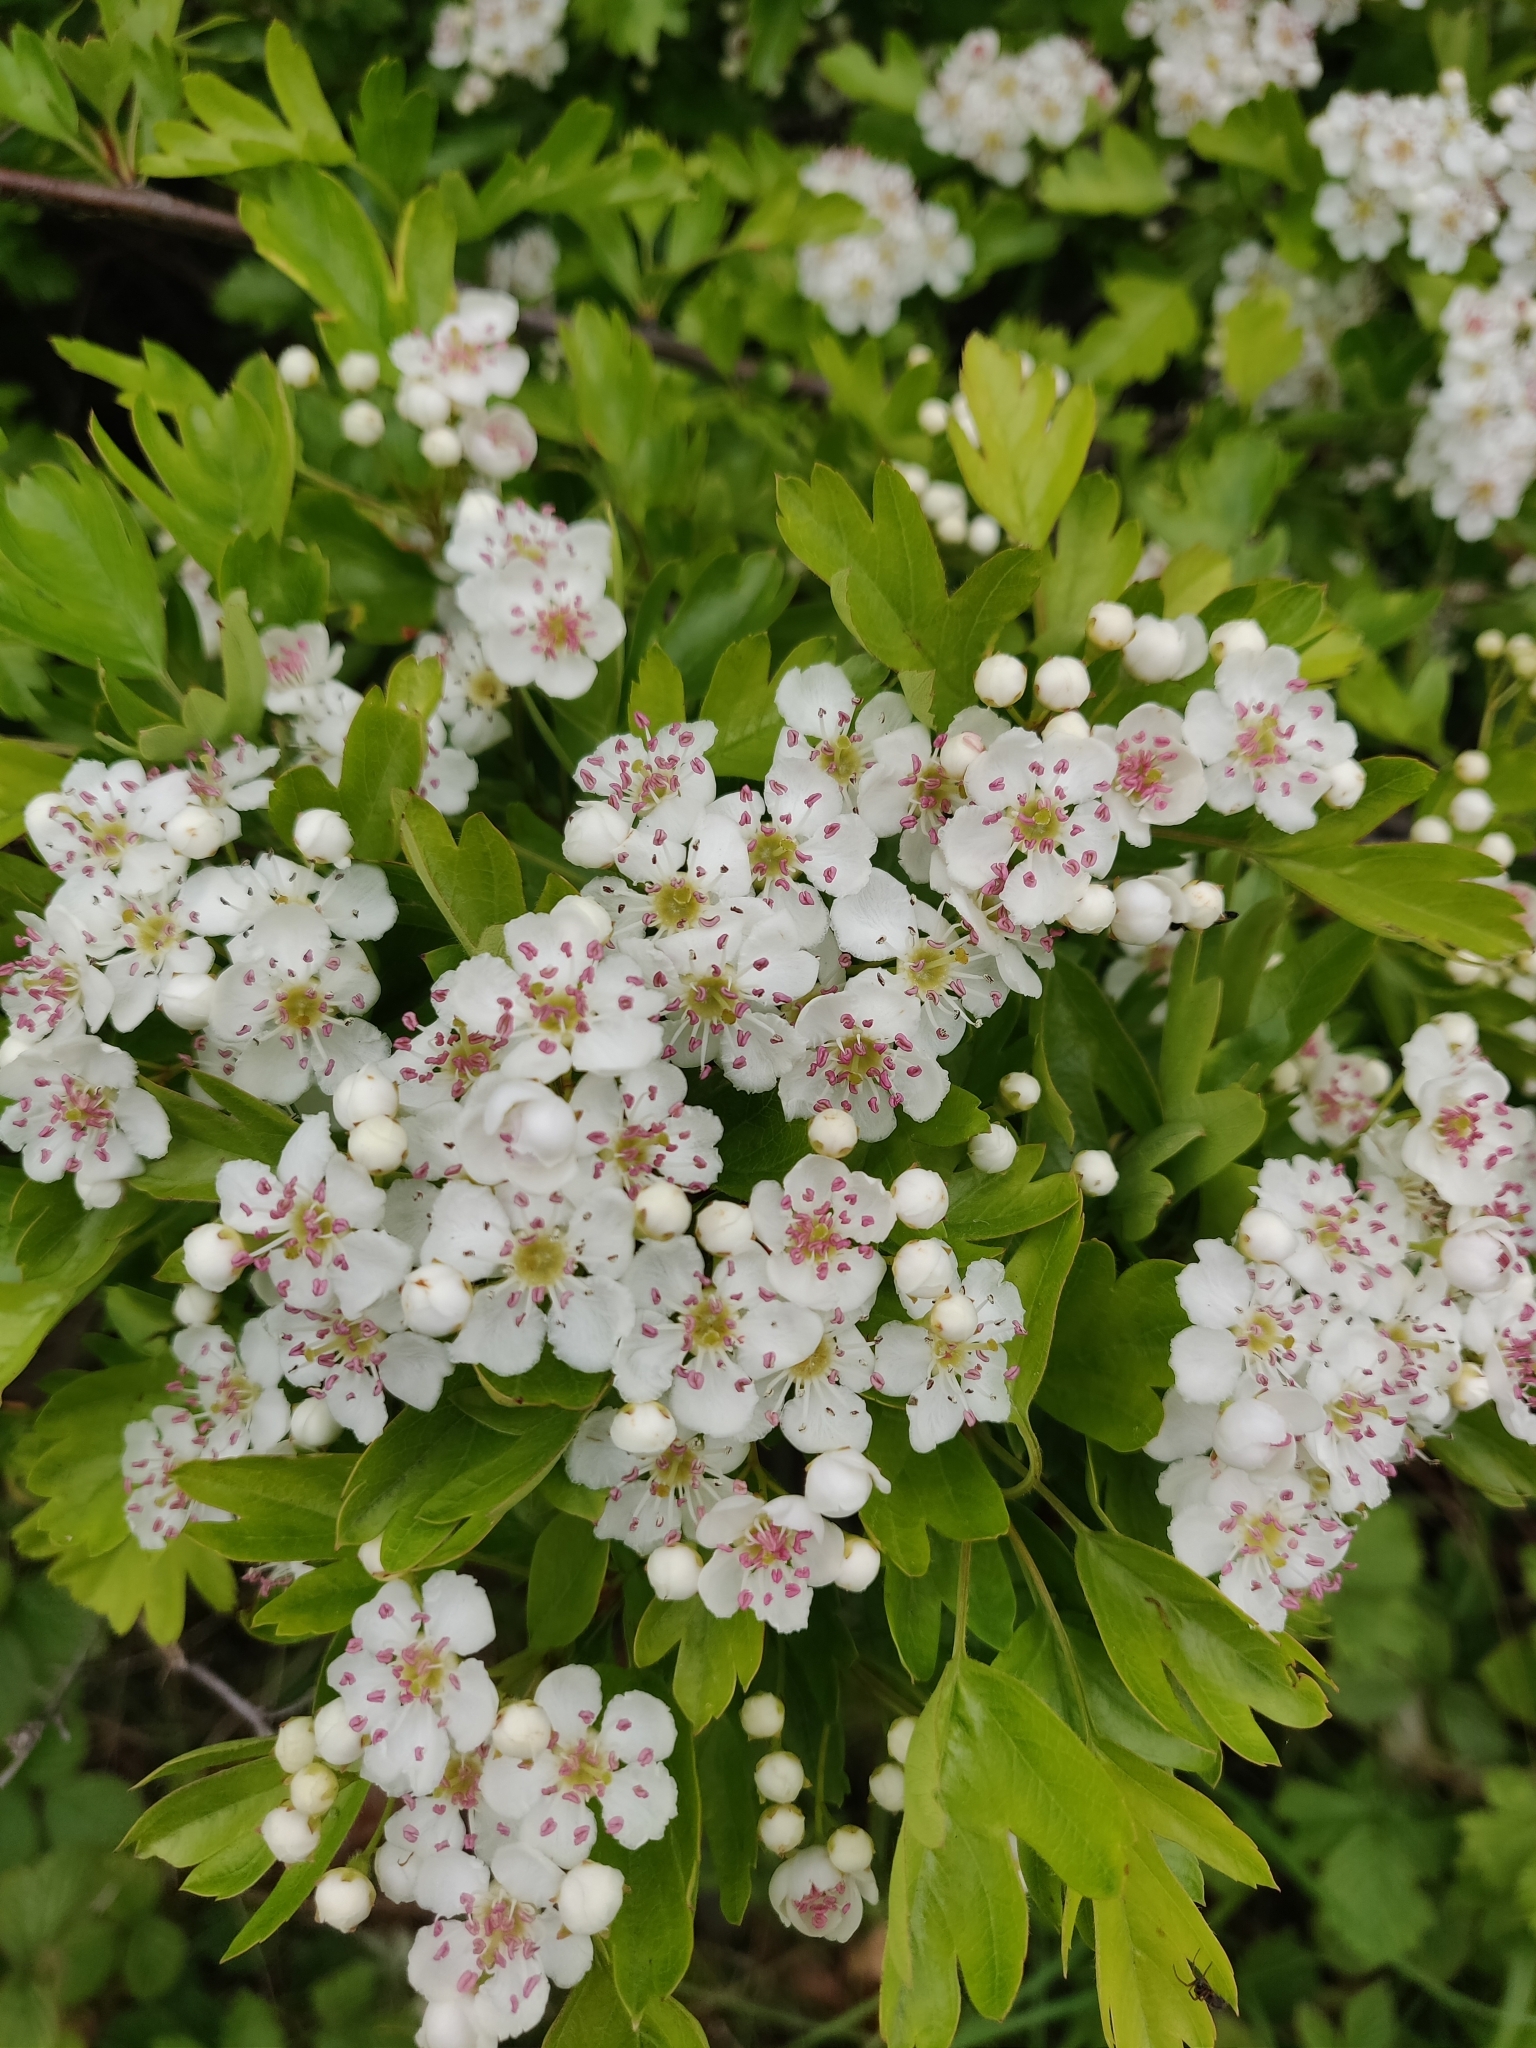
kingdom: Plantae
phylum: Tracheophyta
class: Magnoliopsida
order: Rosales
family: Rosaceae
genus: Crataegus
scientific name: Crataegus monogyna
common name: Hawthorn
